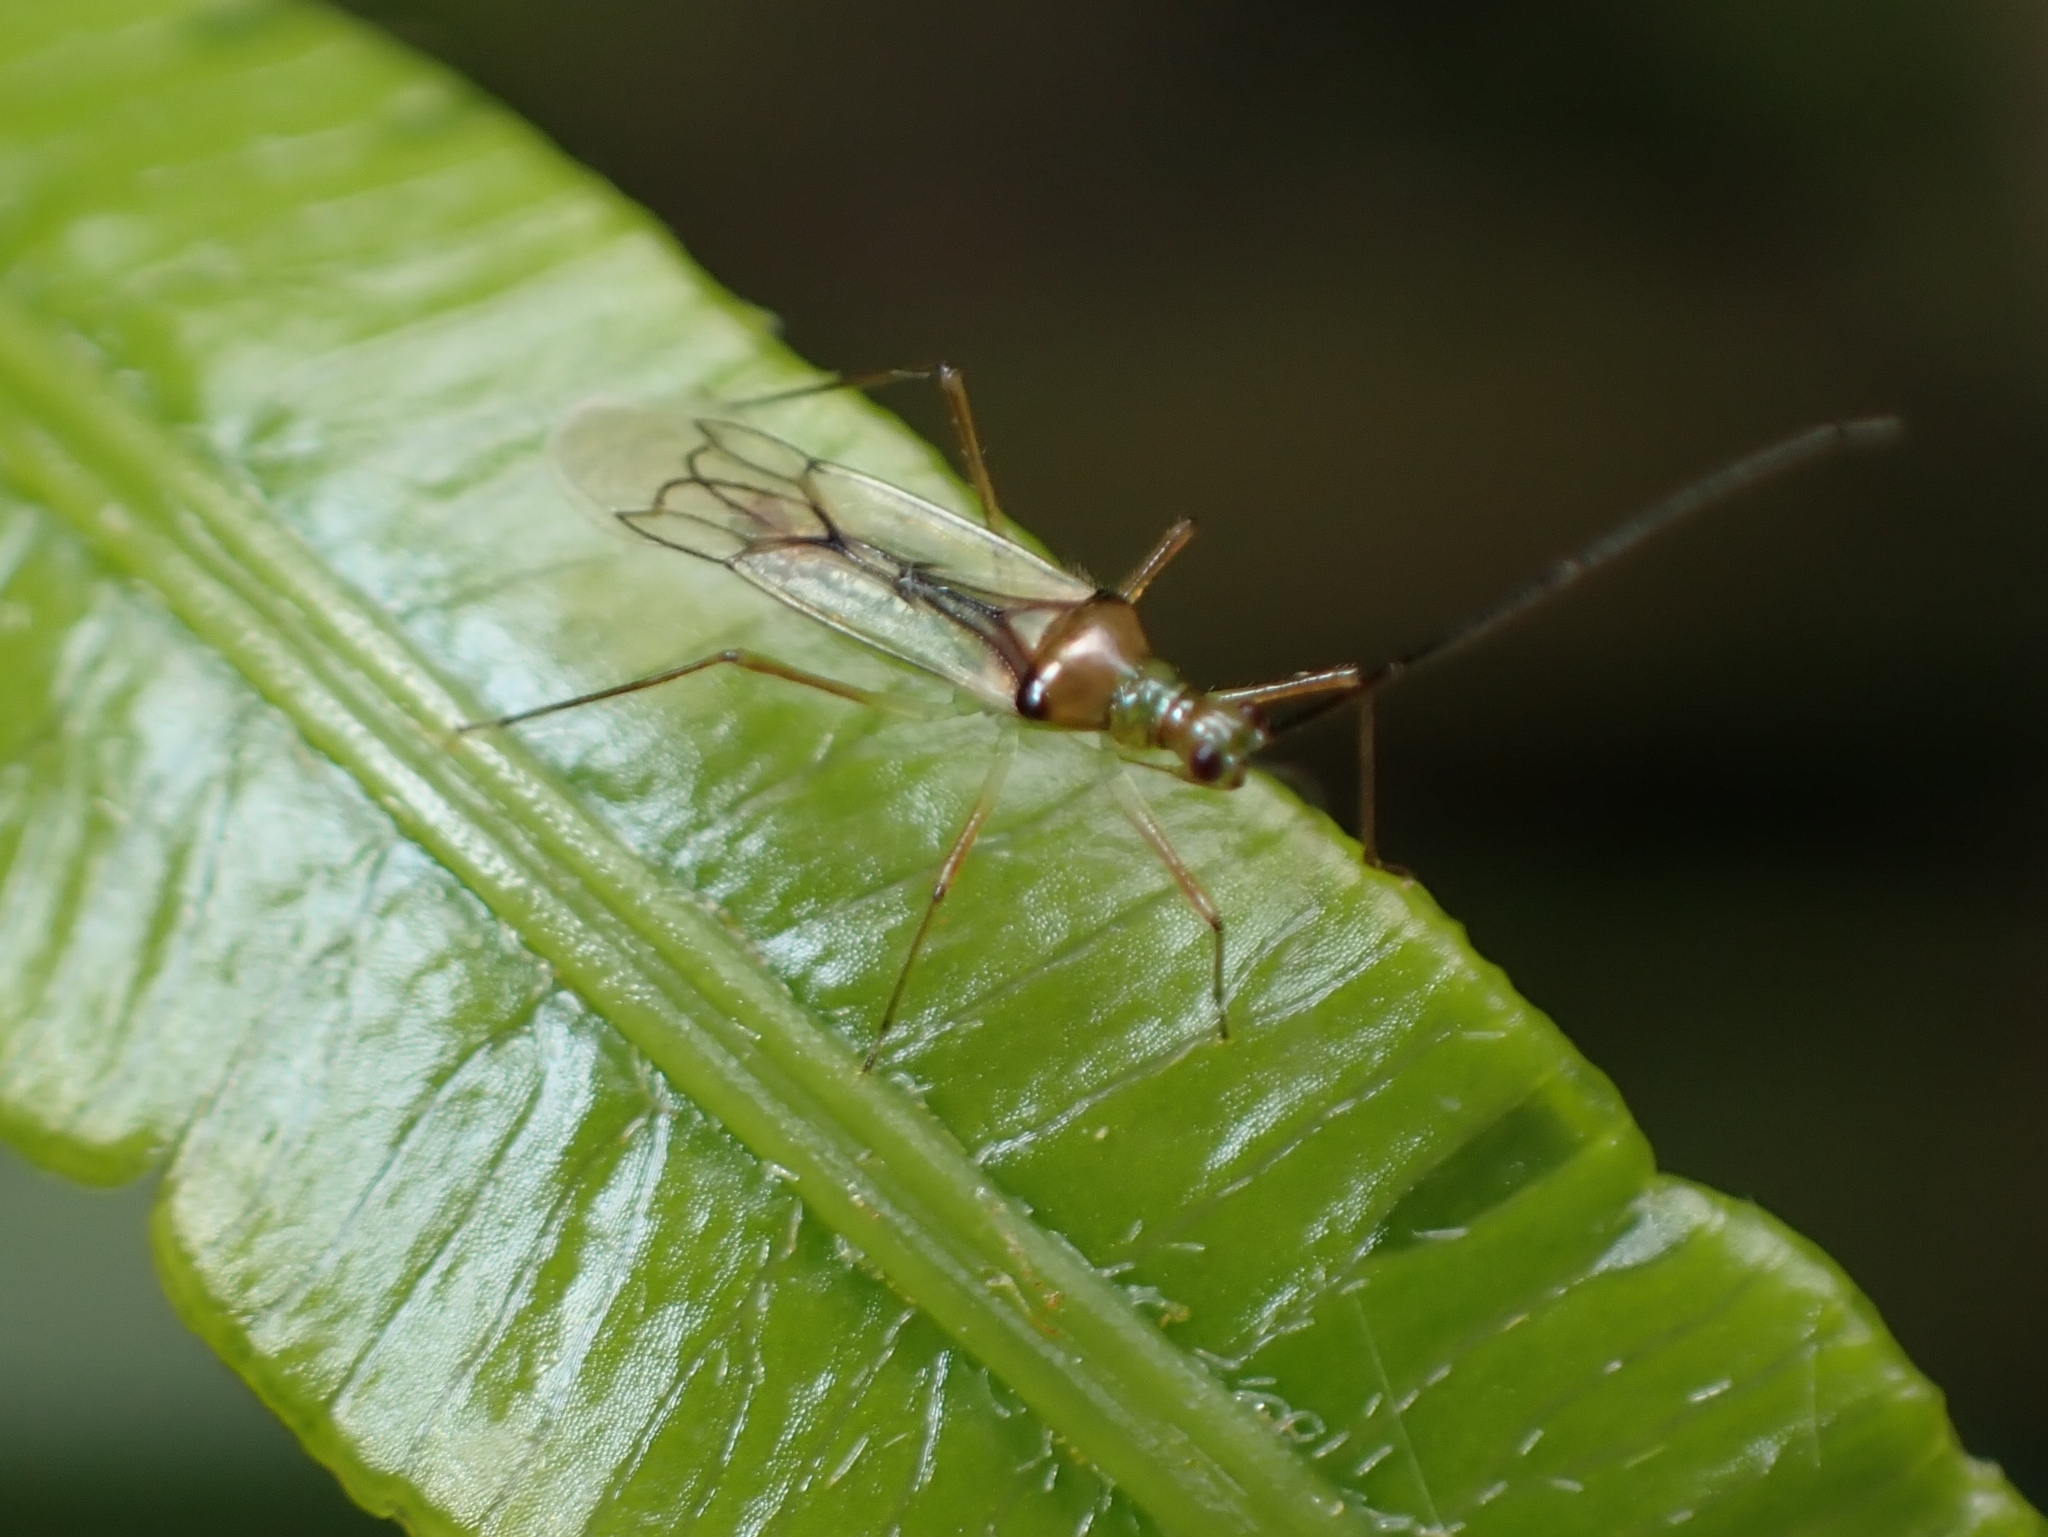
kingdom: Animalia
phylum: Arthropoda
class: Insecta
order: Hemiptera
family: Miridae
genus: Felisacus
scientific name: Felisacus elegantulus
